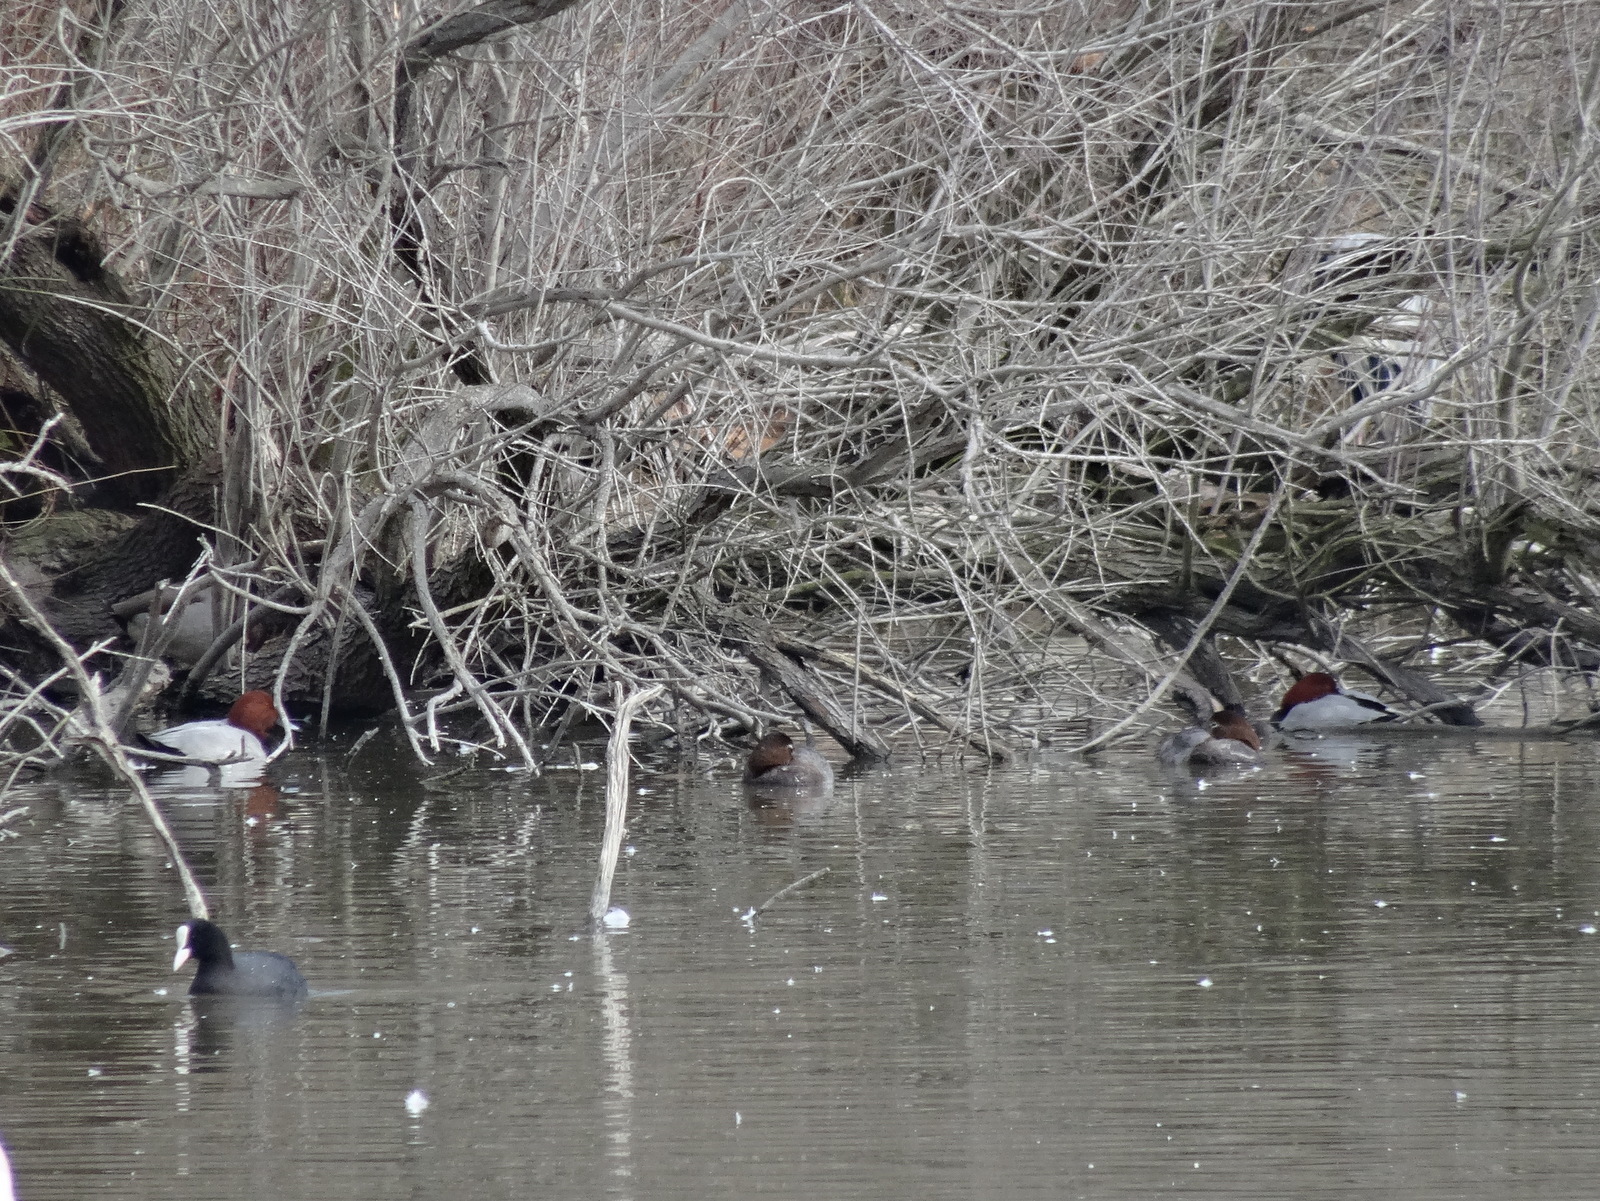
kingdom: Animalia
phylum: Chordata
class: Aves
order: Anseriformes
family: Anatidae
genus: Aythya
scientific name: Aythya ferina
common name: Common pochard
